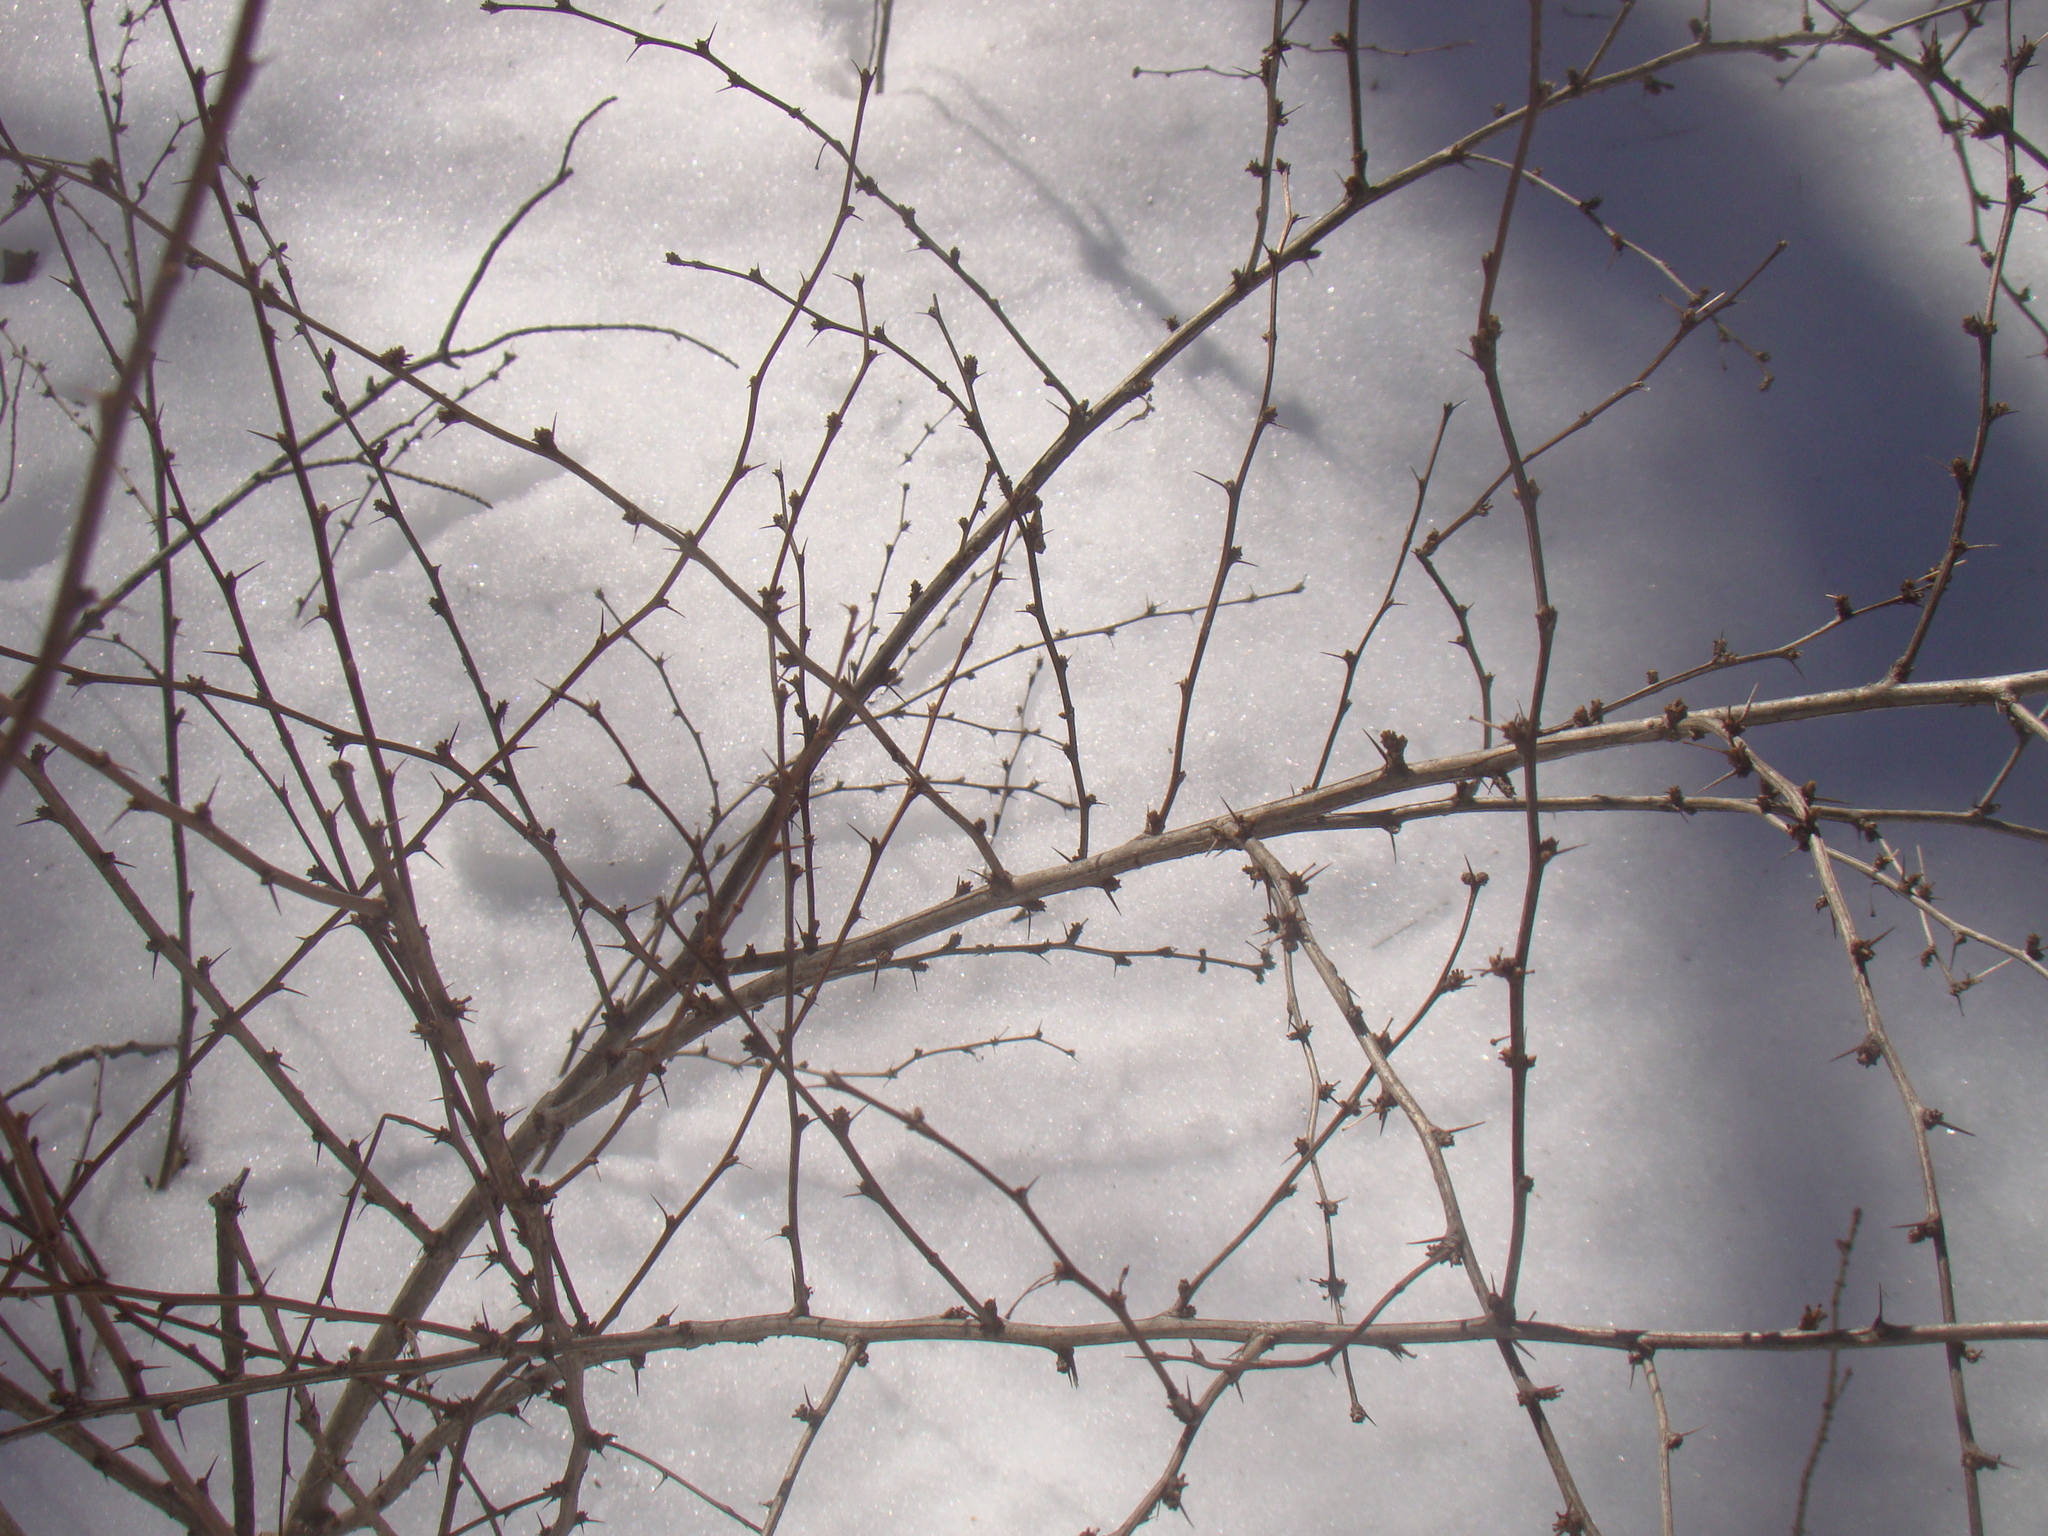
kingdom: Plantae
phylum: Tracheophyta
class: Magnoliopsida
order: Ranunculales
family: Berberidaceae
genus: Berberis
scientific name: Berberis thunbergii
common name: Japanese barberry
